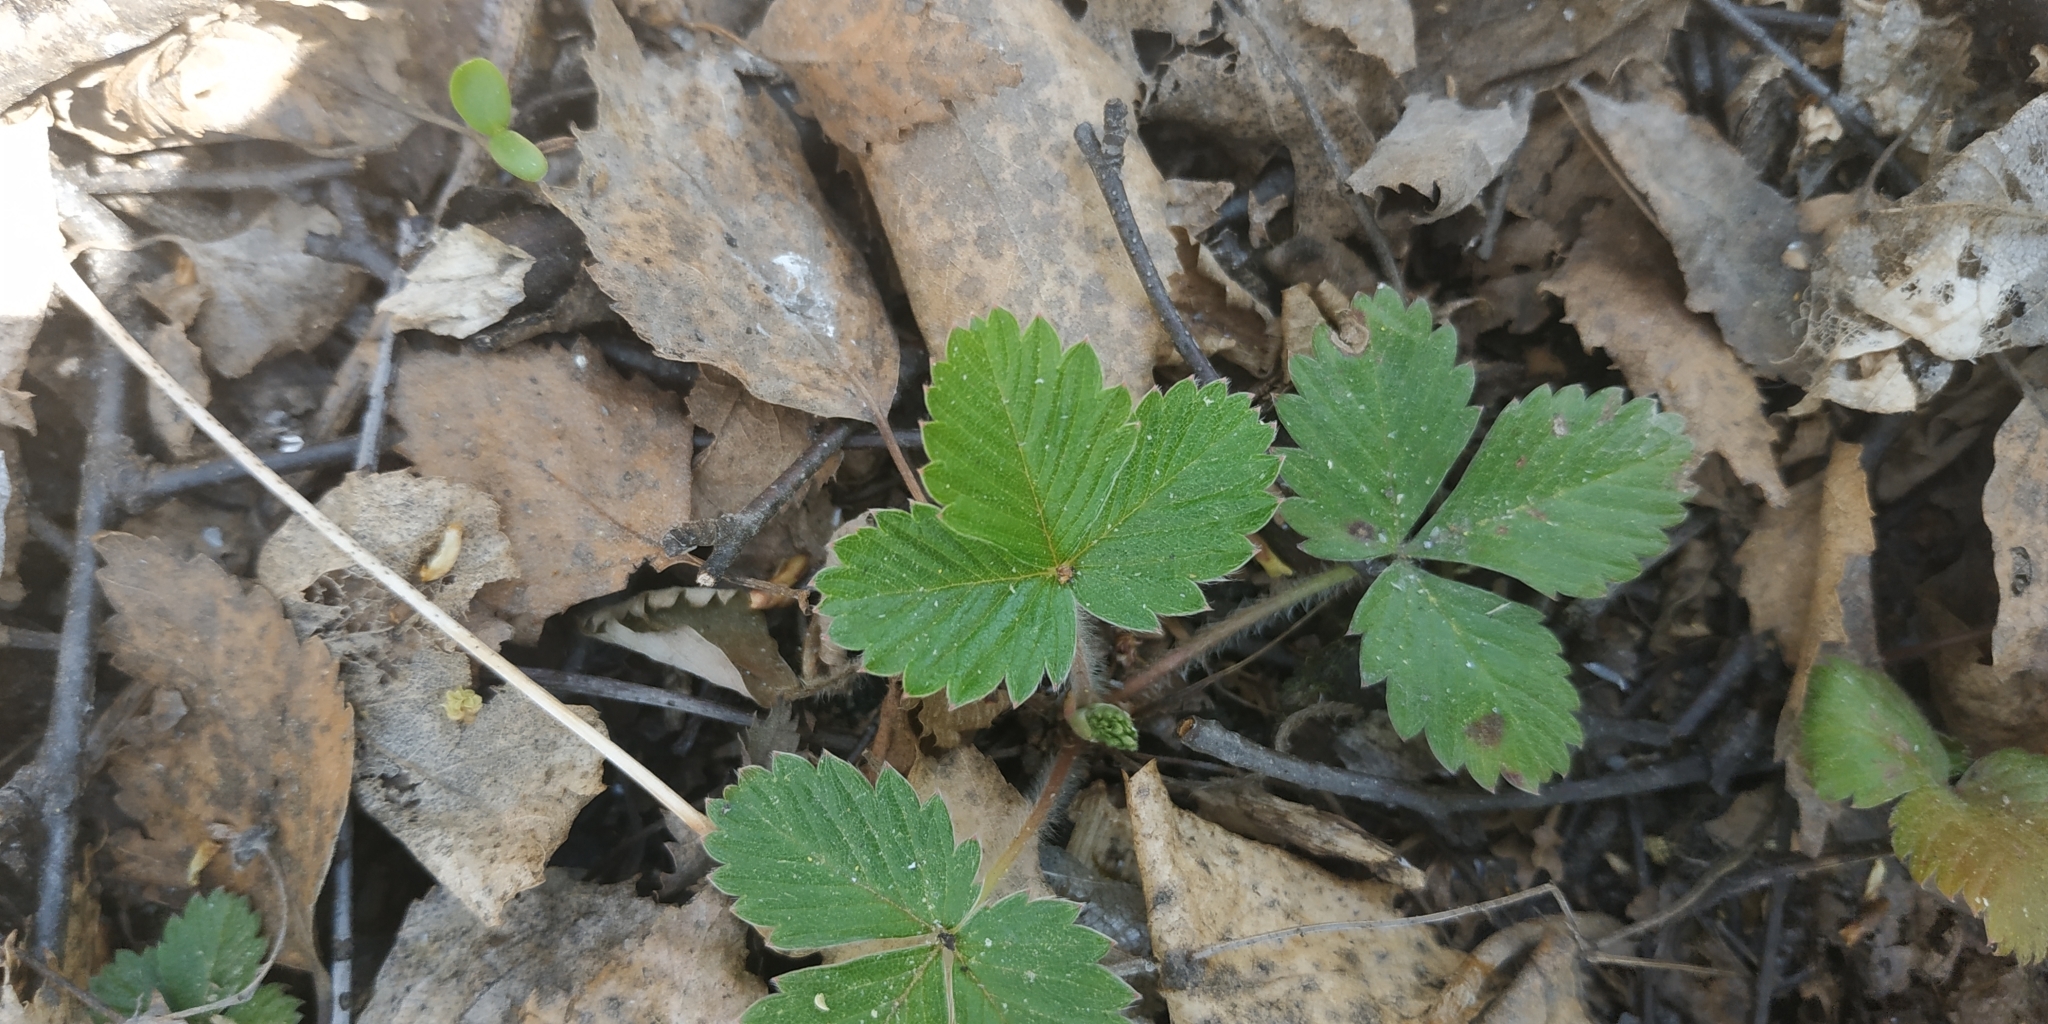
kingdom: Plantae
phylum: Tracheophyta
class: Magnoliopsida
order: Rosales
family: Rosaceae
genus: Fragaria
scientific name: Fragaria vesca
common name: Wild strawberry
